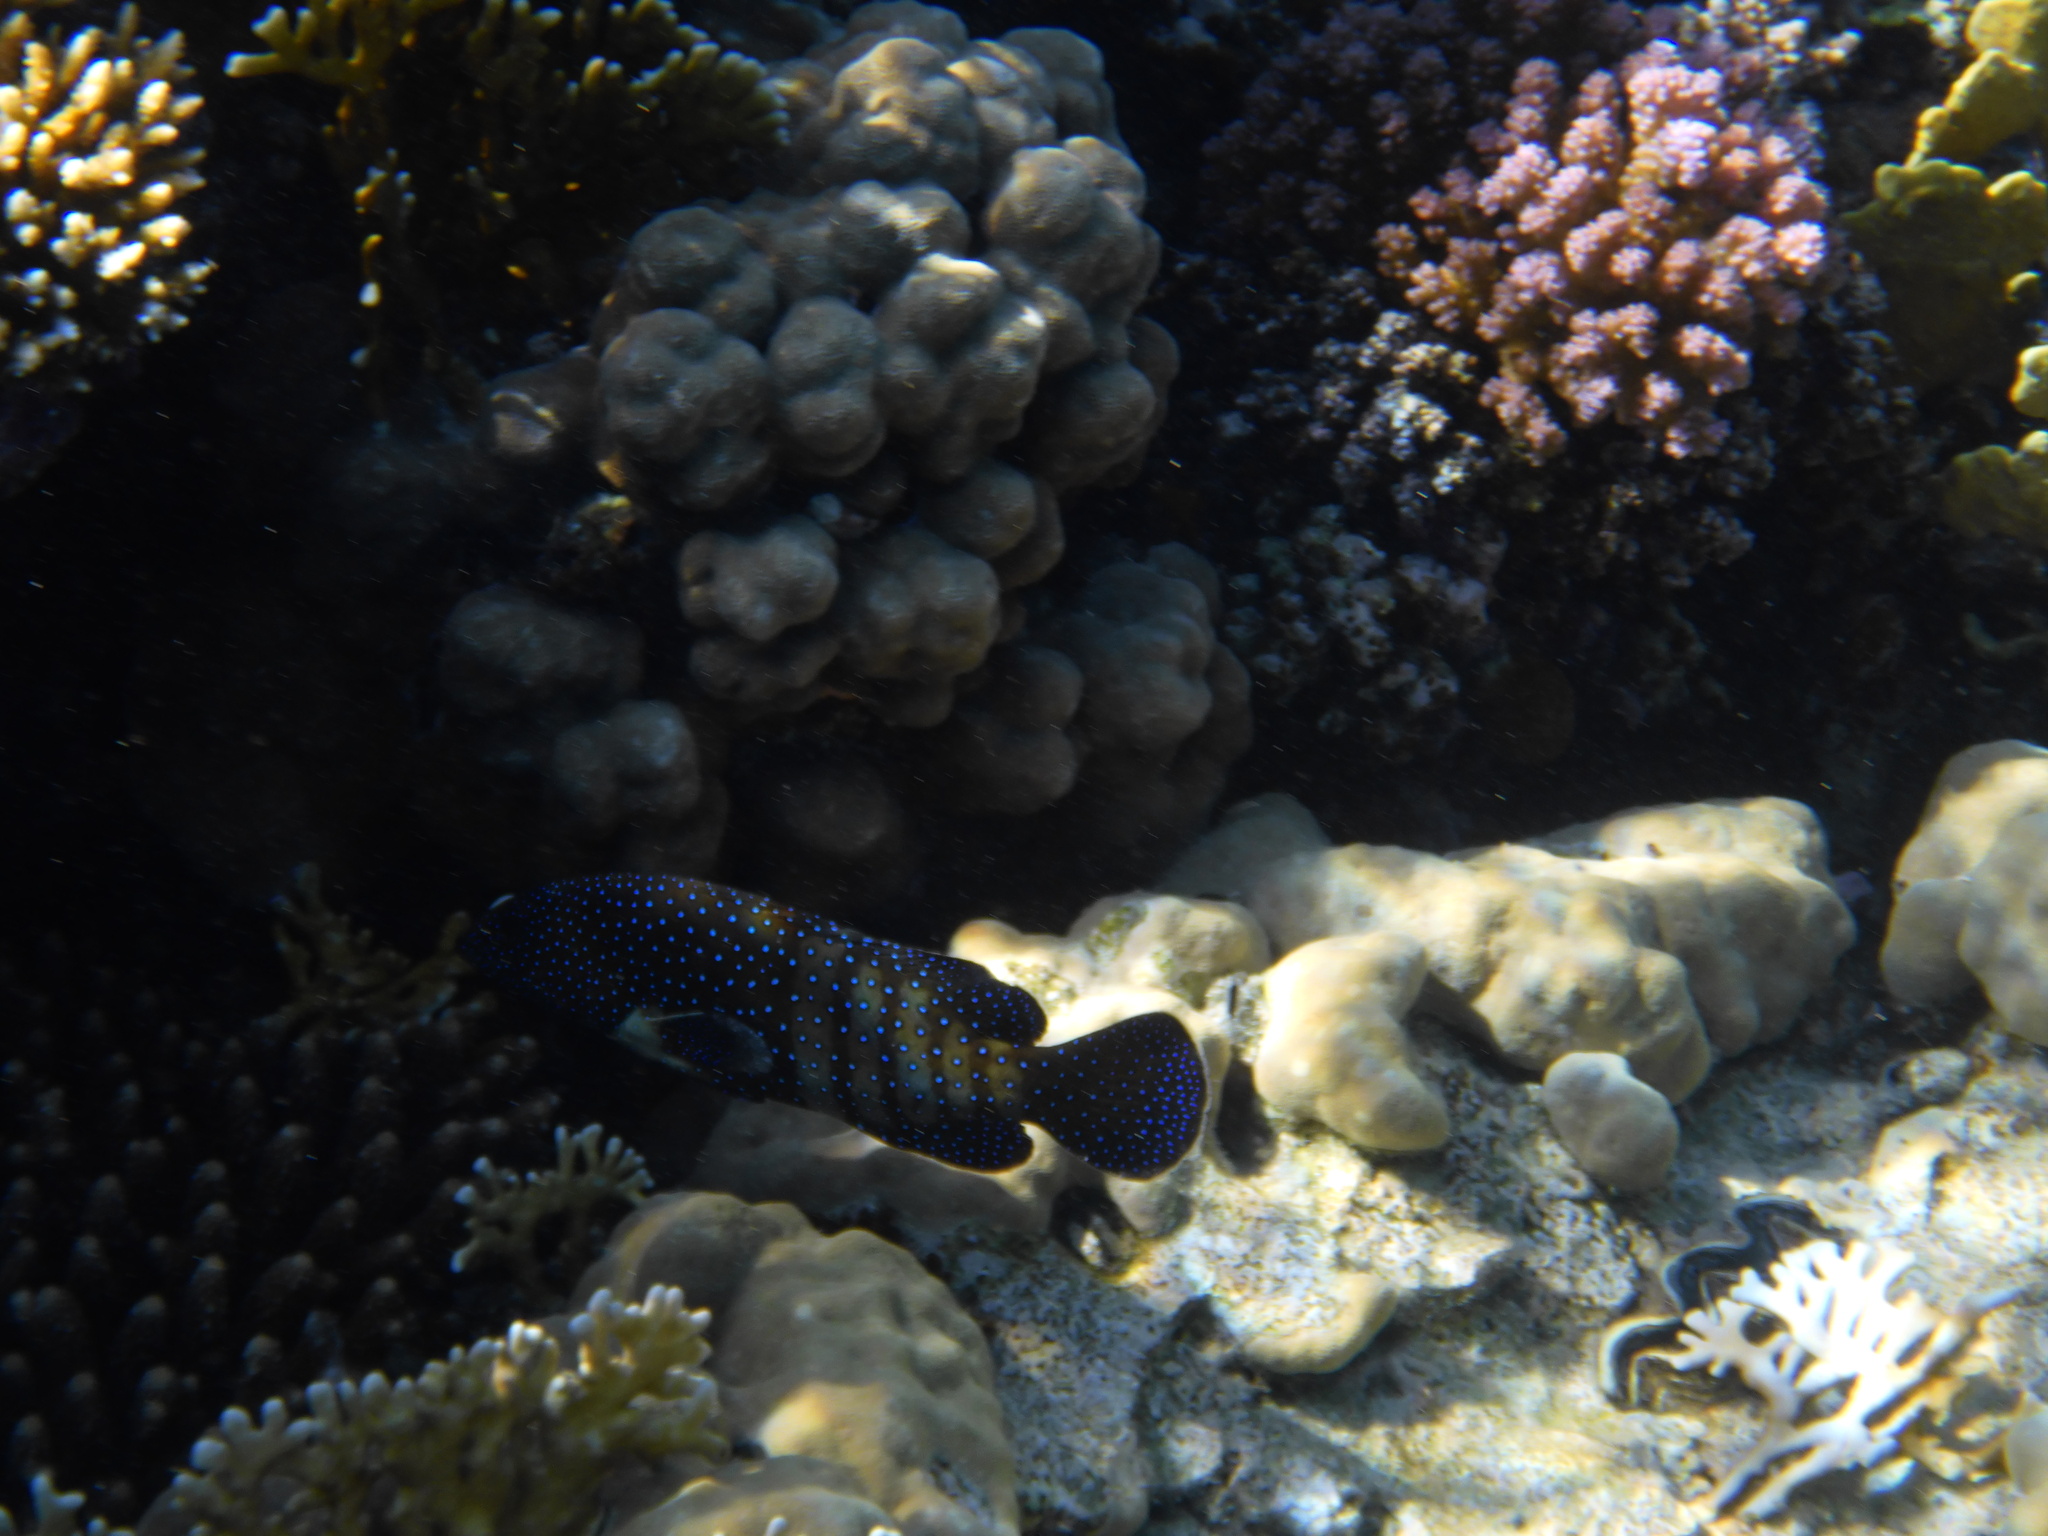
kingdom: Animalia
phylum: Chordata
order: Perciformes
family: Serranidae
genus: Cephalopholis
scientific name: Cephalopholis argus
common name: Peacock grouper
